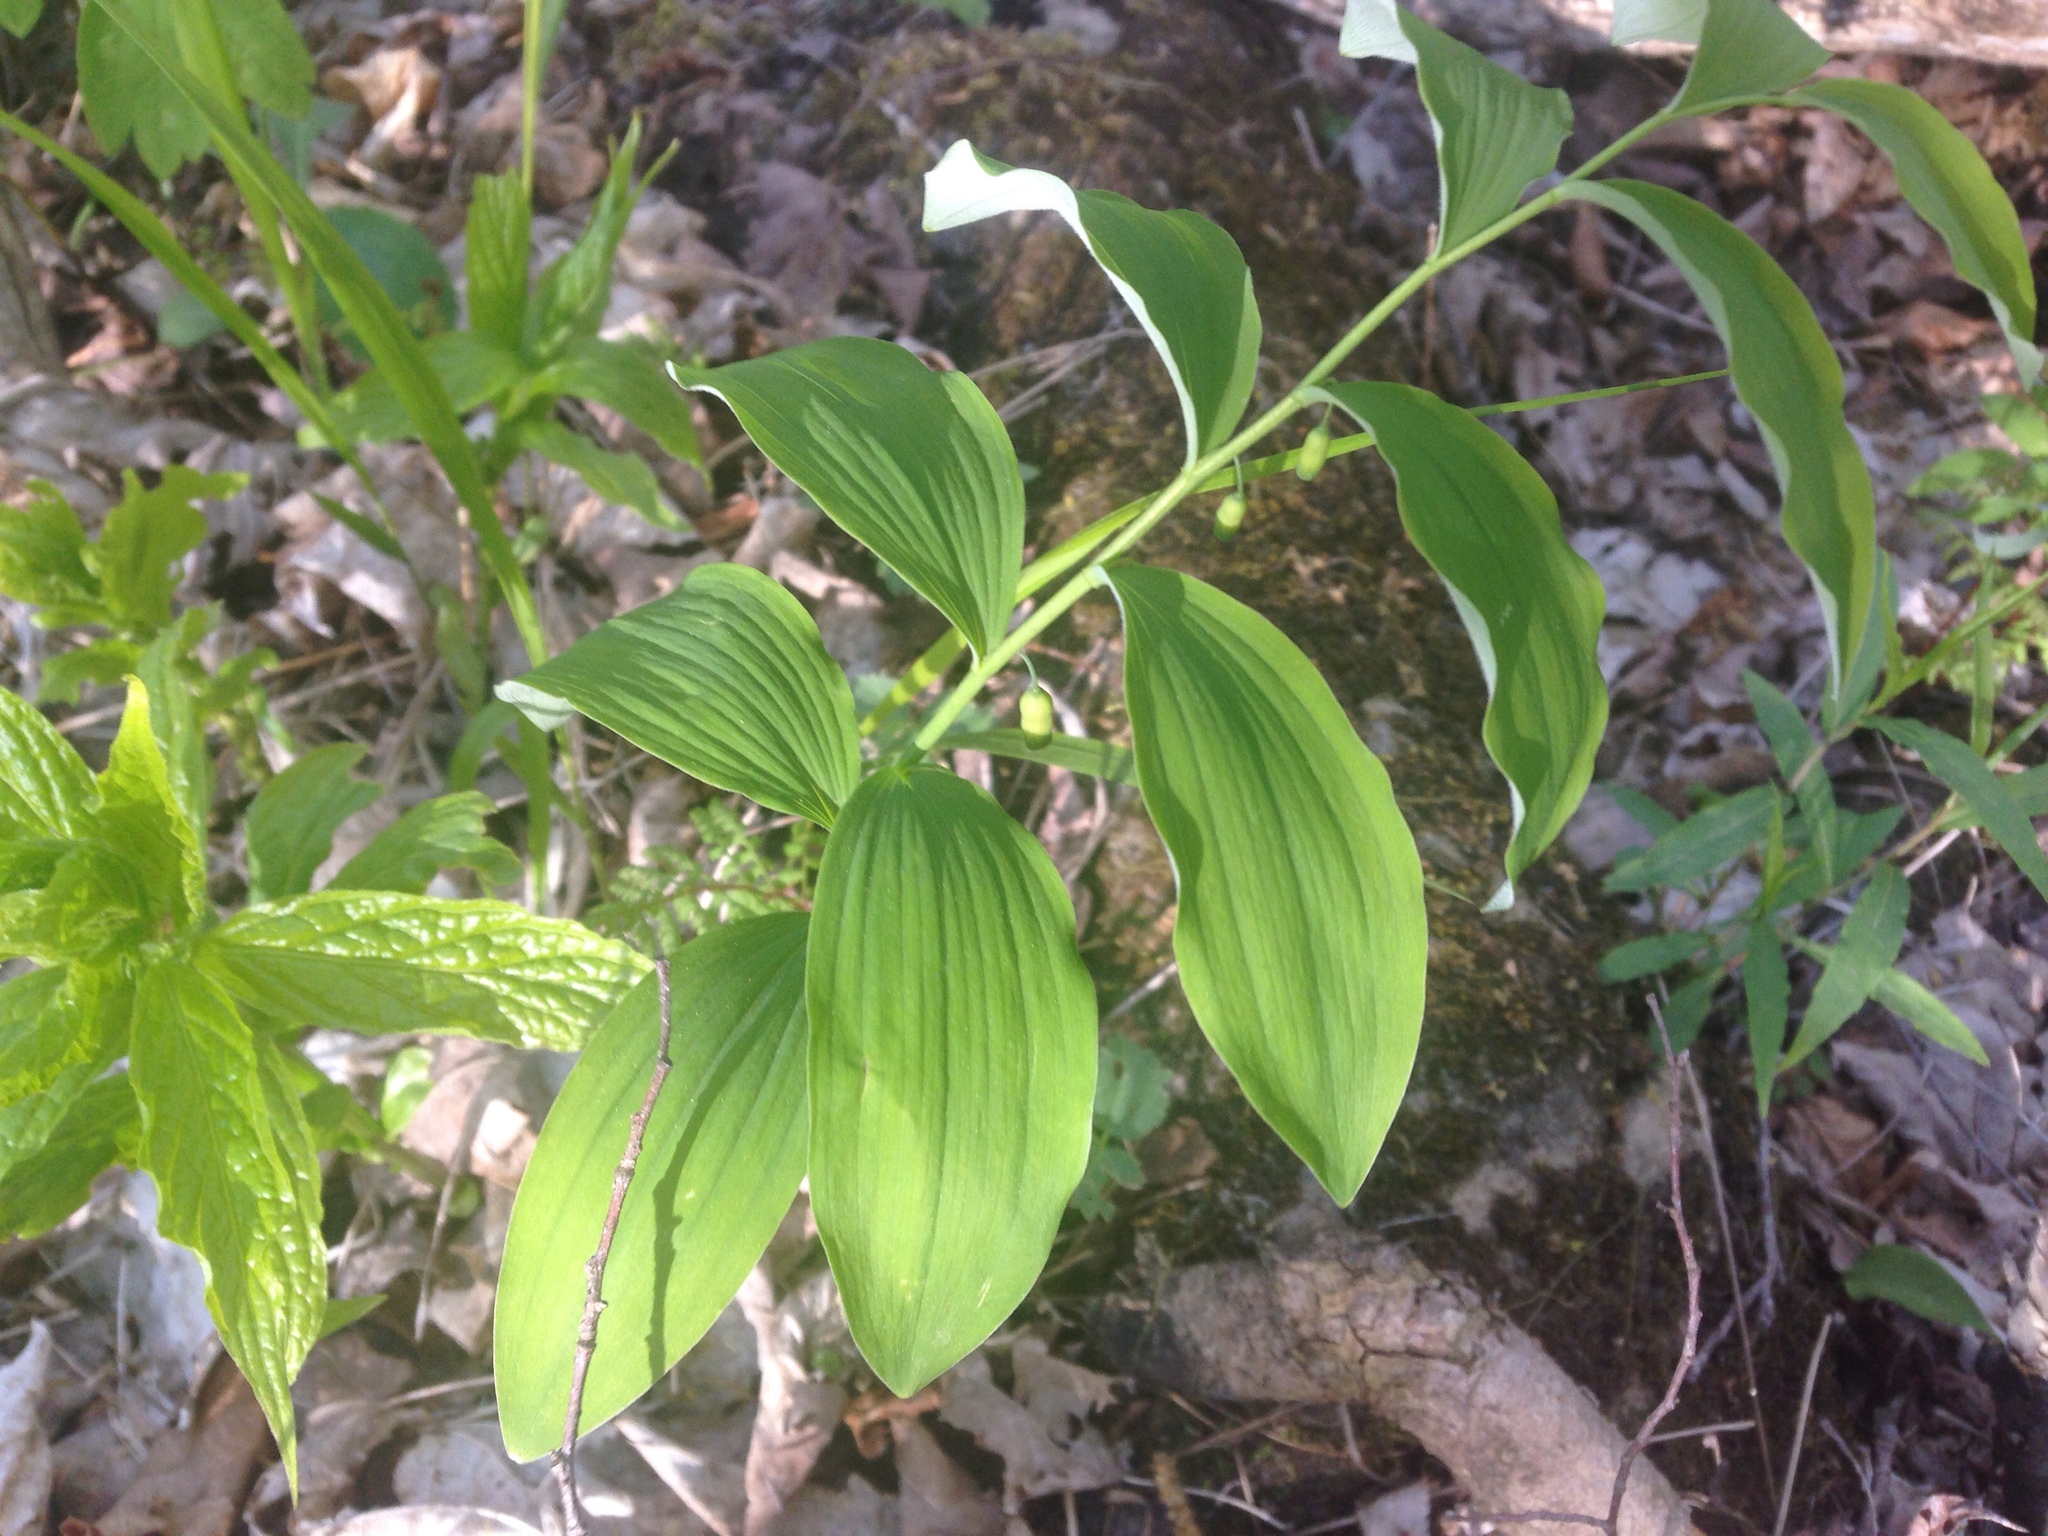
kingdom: Plantae
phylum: Tracheophyta
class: Liliopsida
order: Asparagales
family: Asparagaceae
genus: Polygonatum
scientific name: Polygonatum pubescens
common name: Downy solomon's seal
